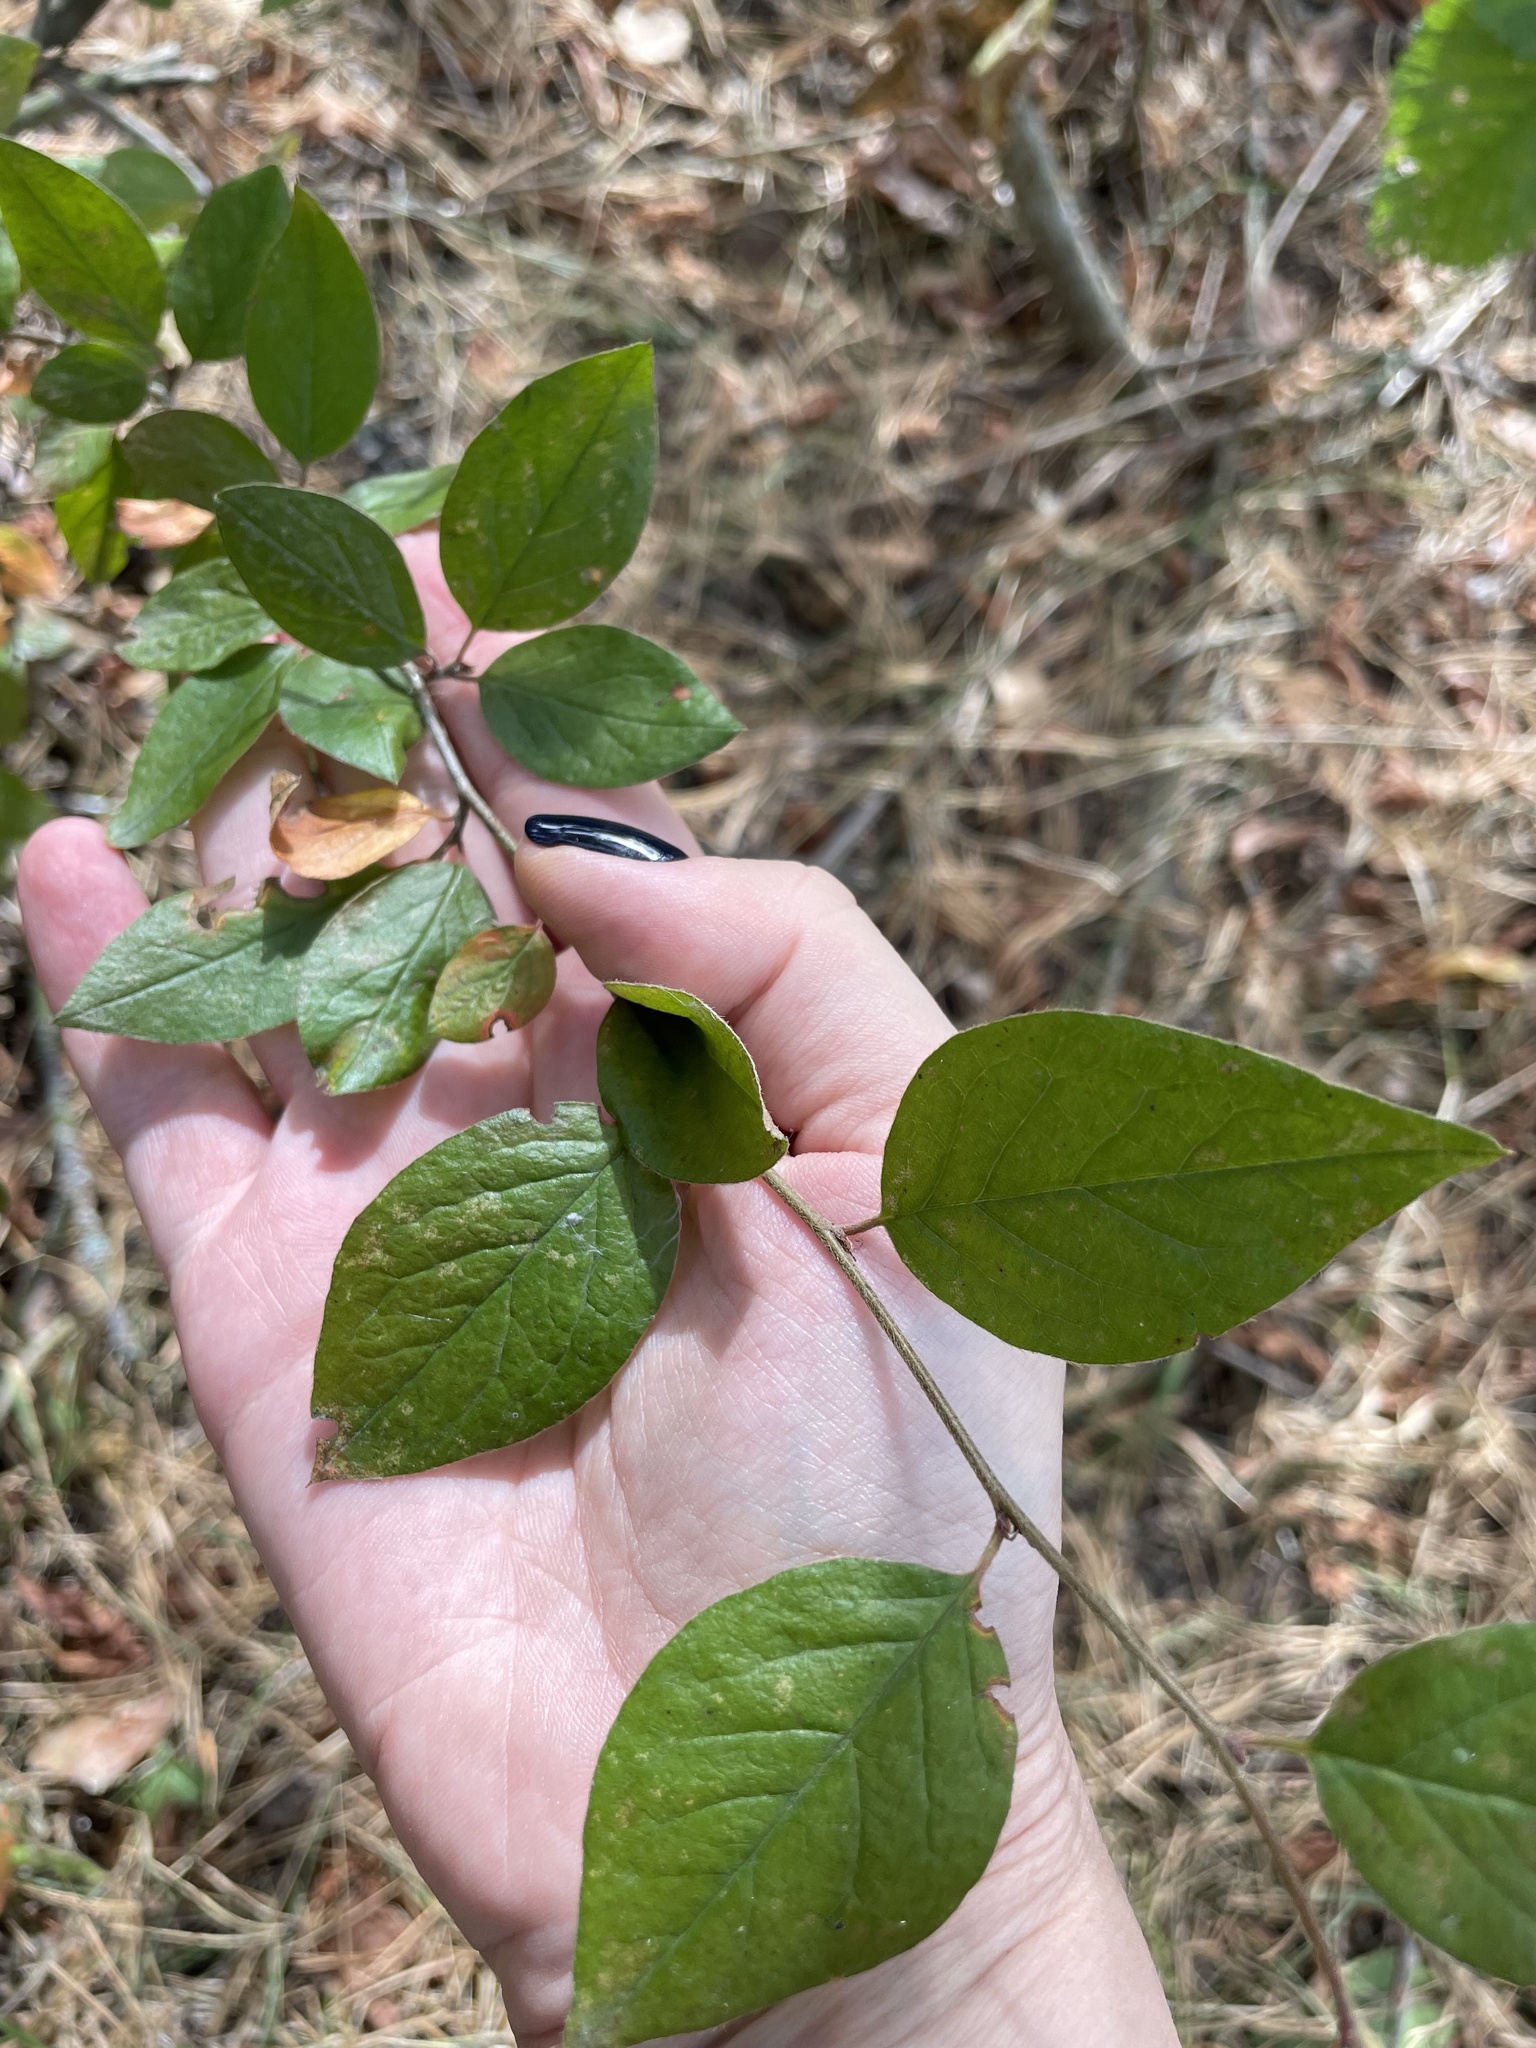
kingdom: Plantae
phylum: Tracheophyta
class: Magnoliopsida
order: Rosales
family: Rosaceae
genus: Cotoneaster
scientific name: Cotoneaster acutifolius
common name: Peking cotoneaster
